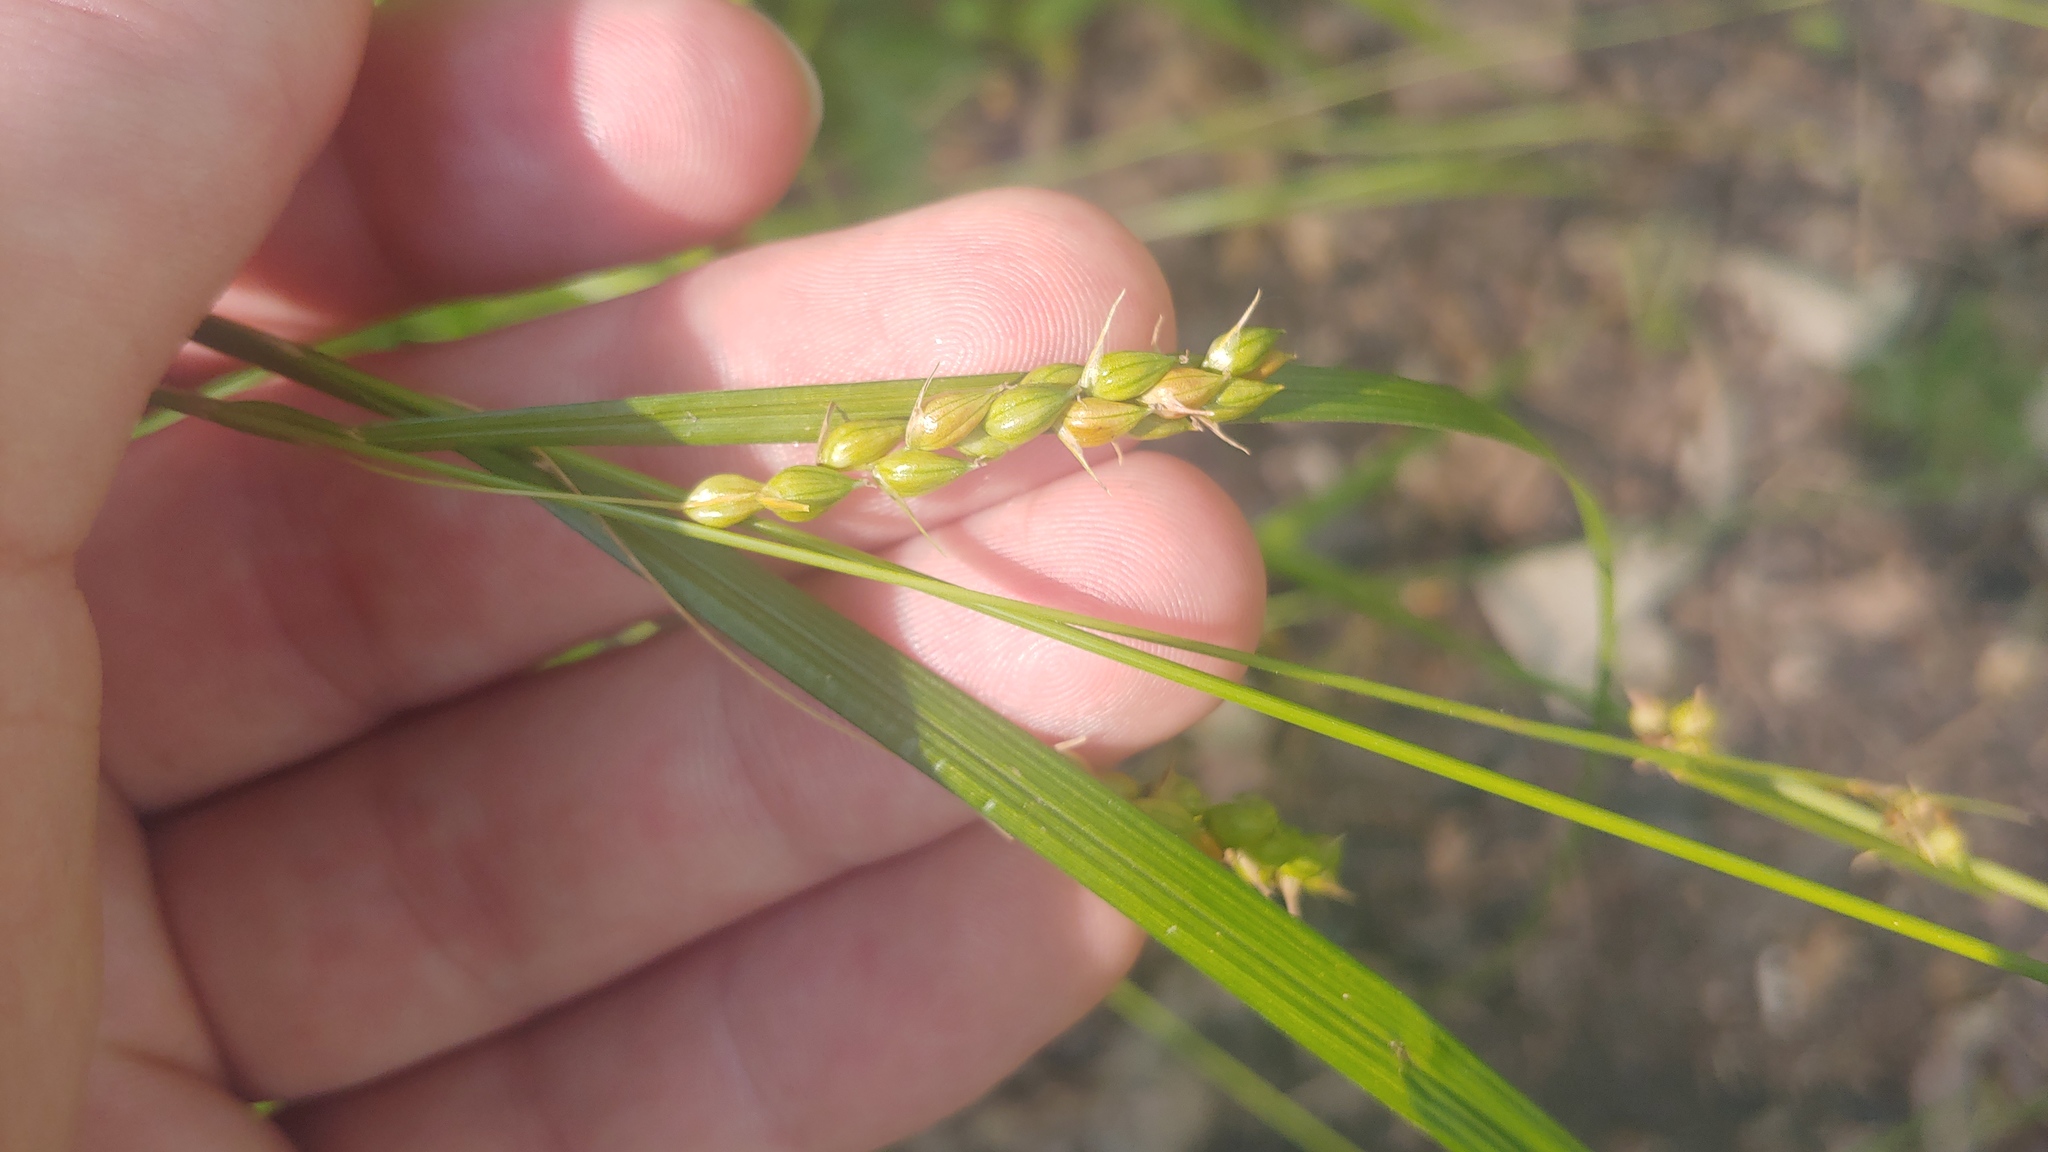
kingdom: Plantae
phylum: Tracheophyta
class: Liliopsida
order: Poales
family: Cyperaceae
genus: Carex
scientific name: Carex davisii
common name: Davis' sedge
